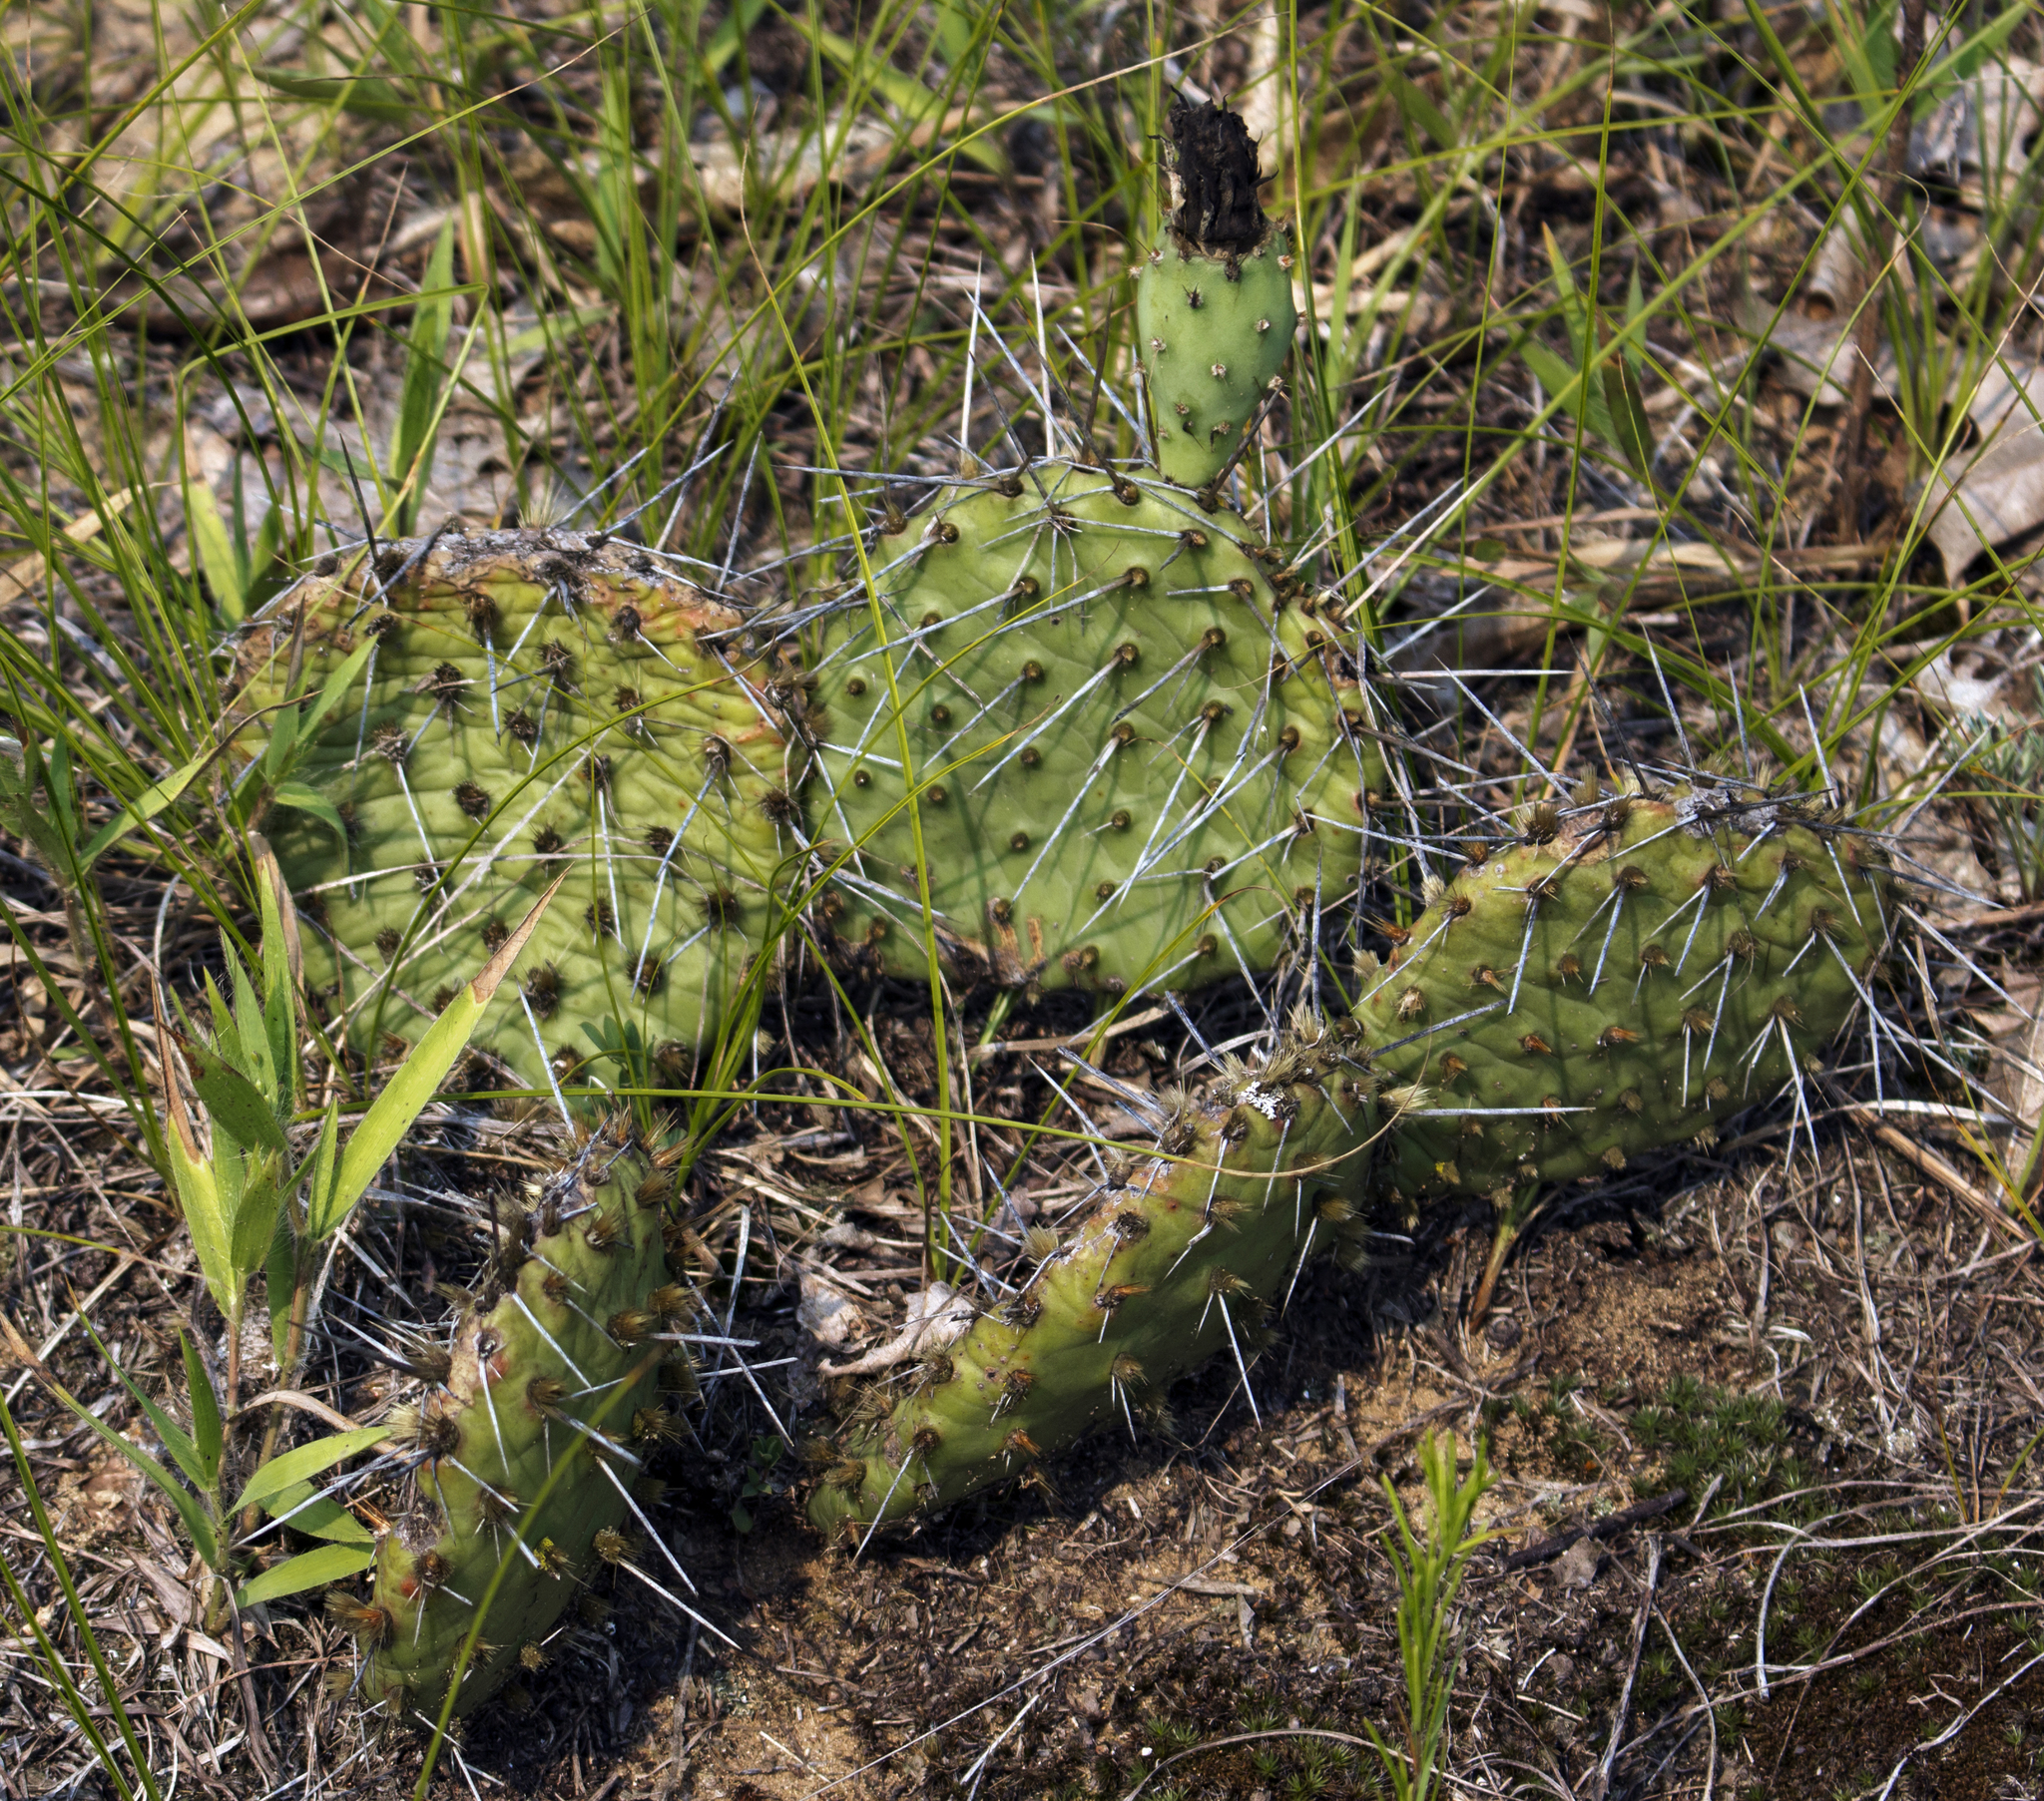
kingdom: Plantae
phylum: Tracheophyta
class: Magnoliopsida
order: Caryophyllales
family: Cactaceae
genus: Opuntia
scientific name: Opuntia cymochila
